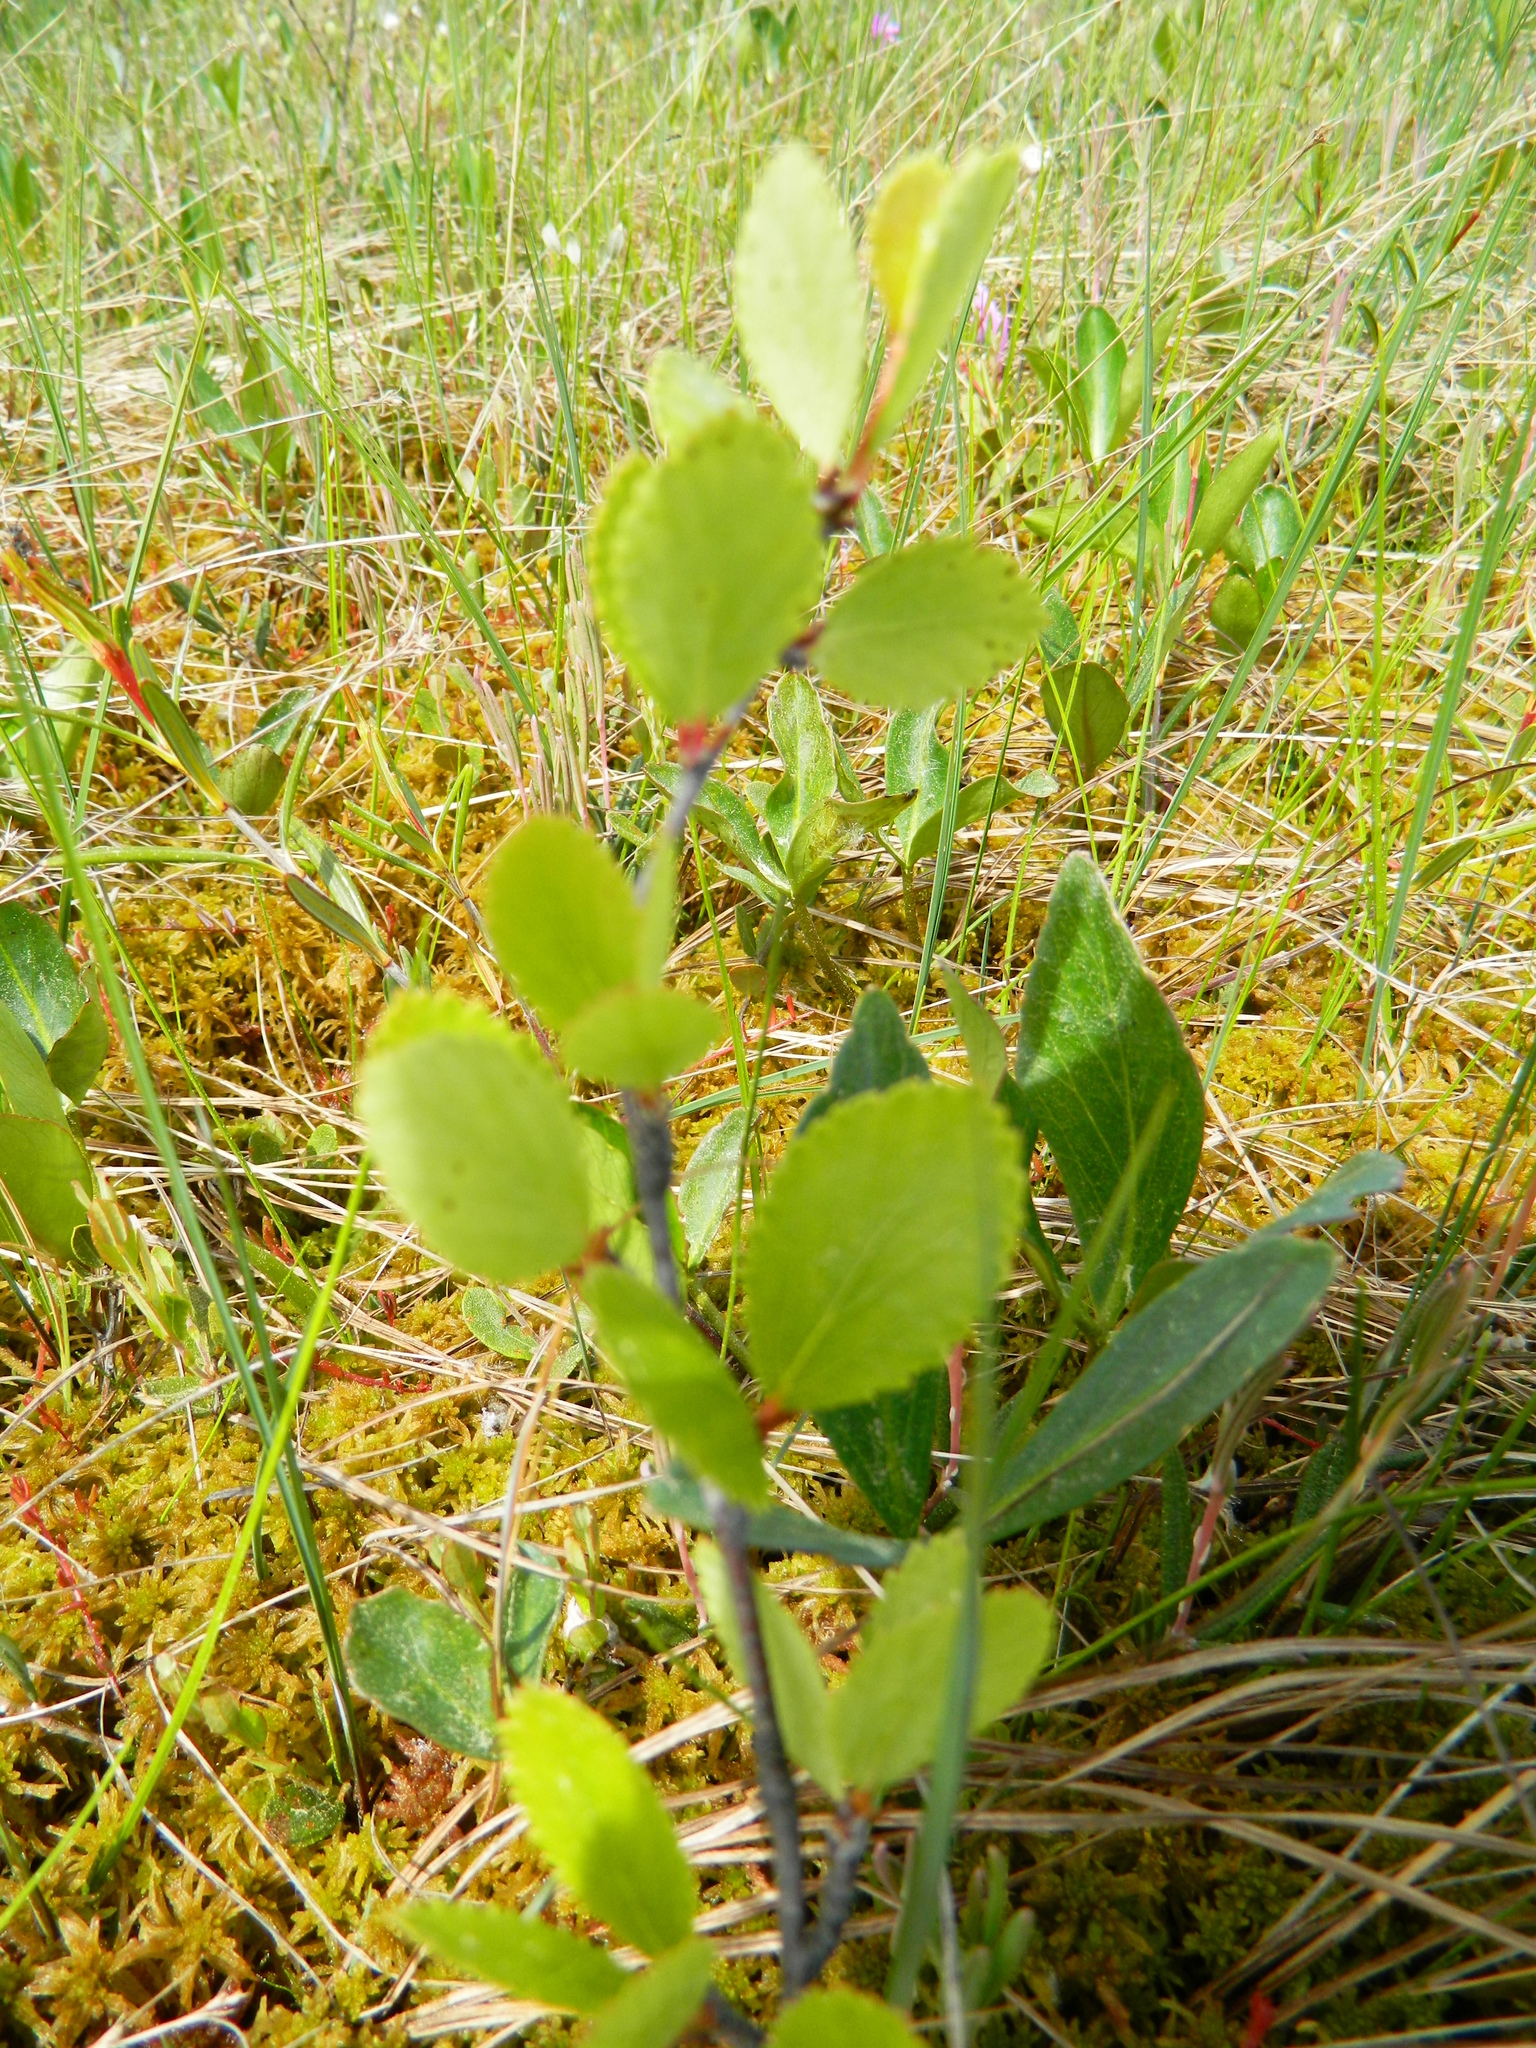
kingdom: Plantae
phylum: Tracheophyta
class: Magnoliopsida
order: Fagales
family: Betulaceae
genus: Betula
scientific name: Betula pumila
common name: Bog birch
